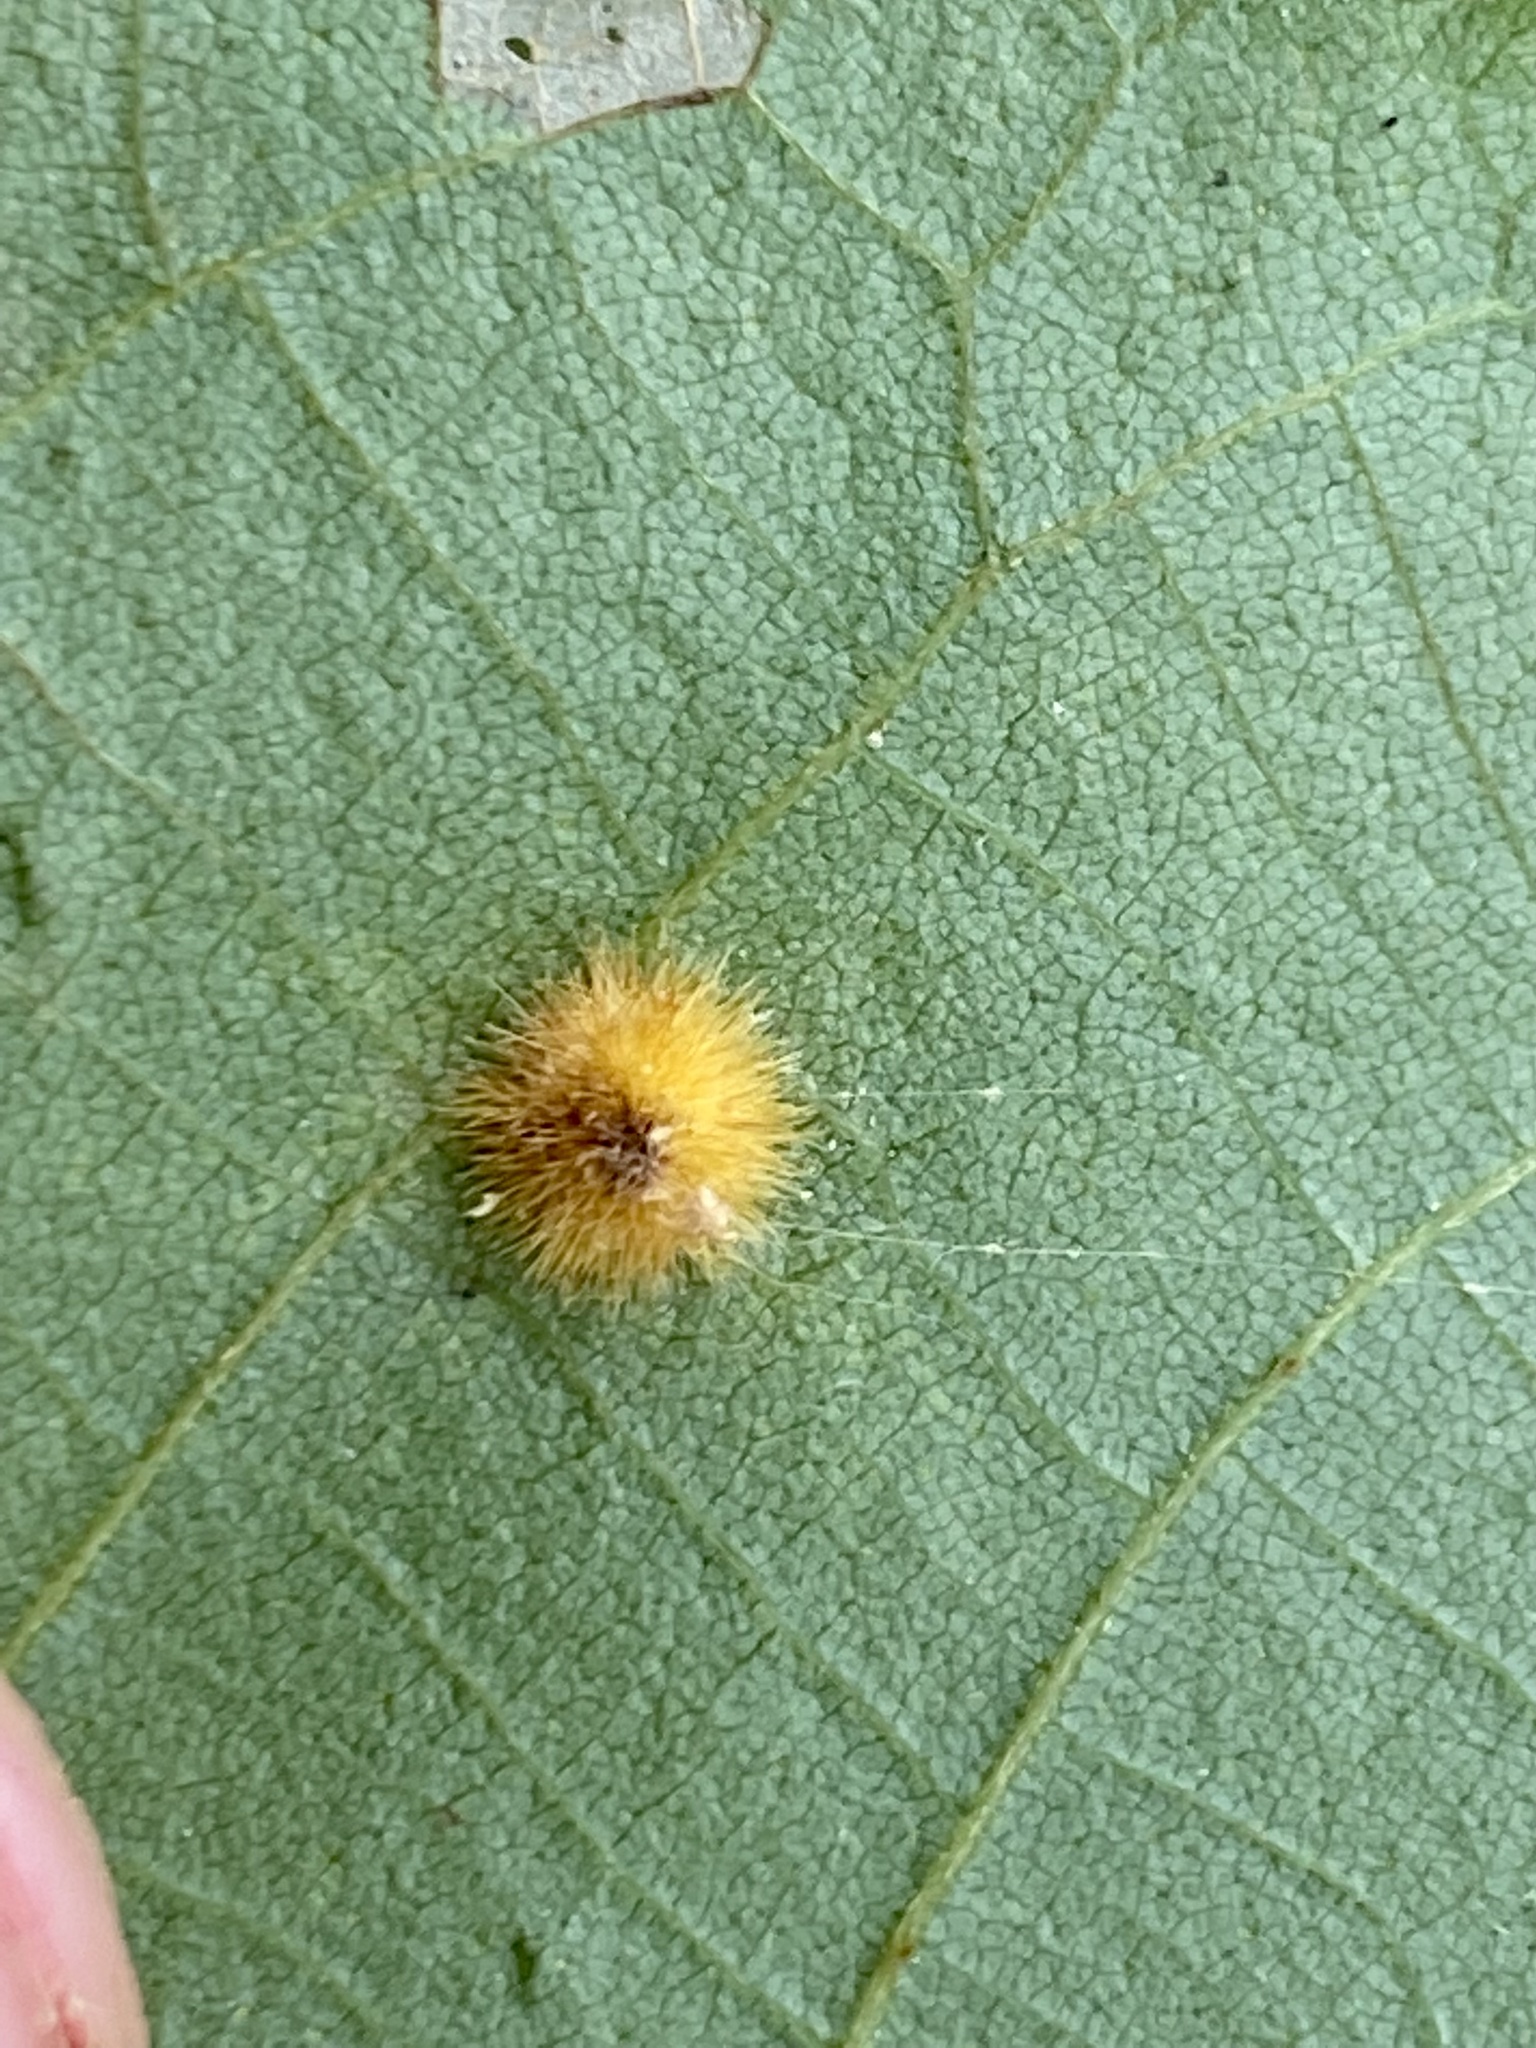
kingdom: Animalia
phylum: Arthropoda
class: Insecta
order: Diptera
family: Cecidomyiidae
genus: Caryomyia
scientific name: Caryomyia purpurea
